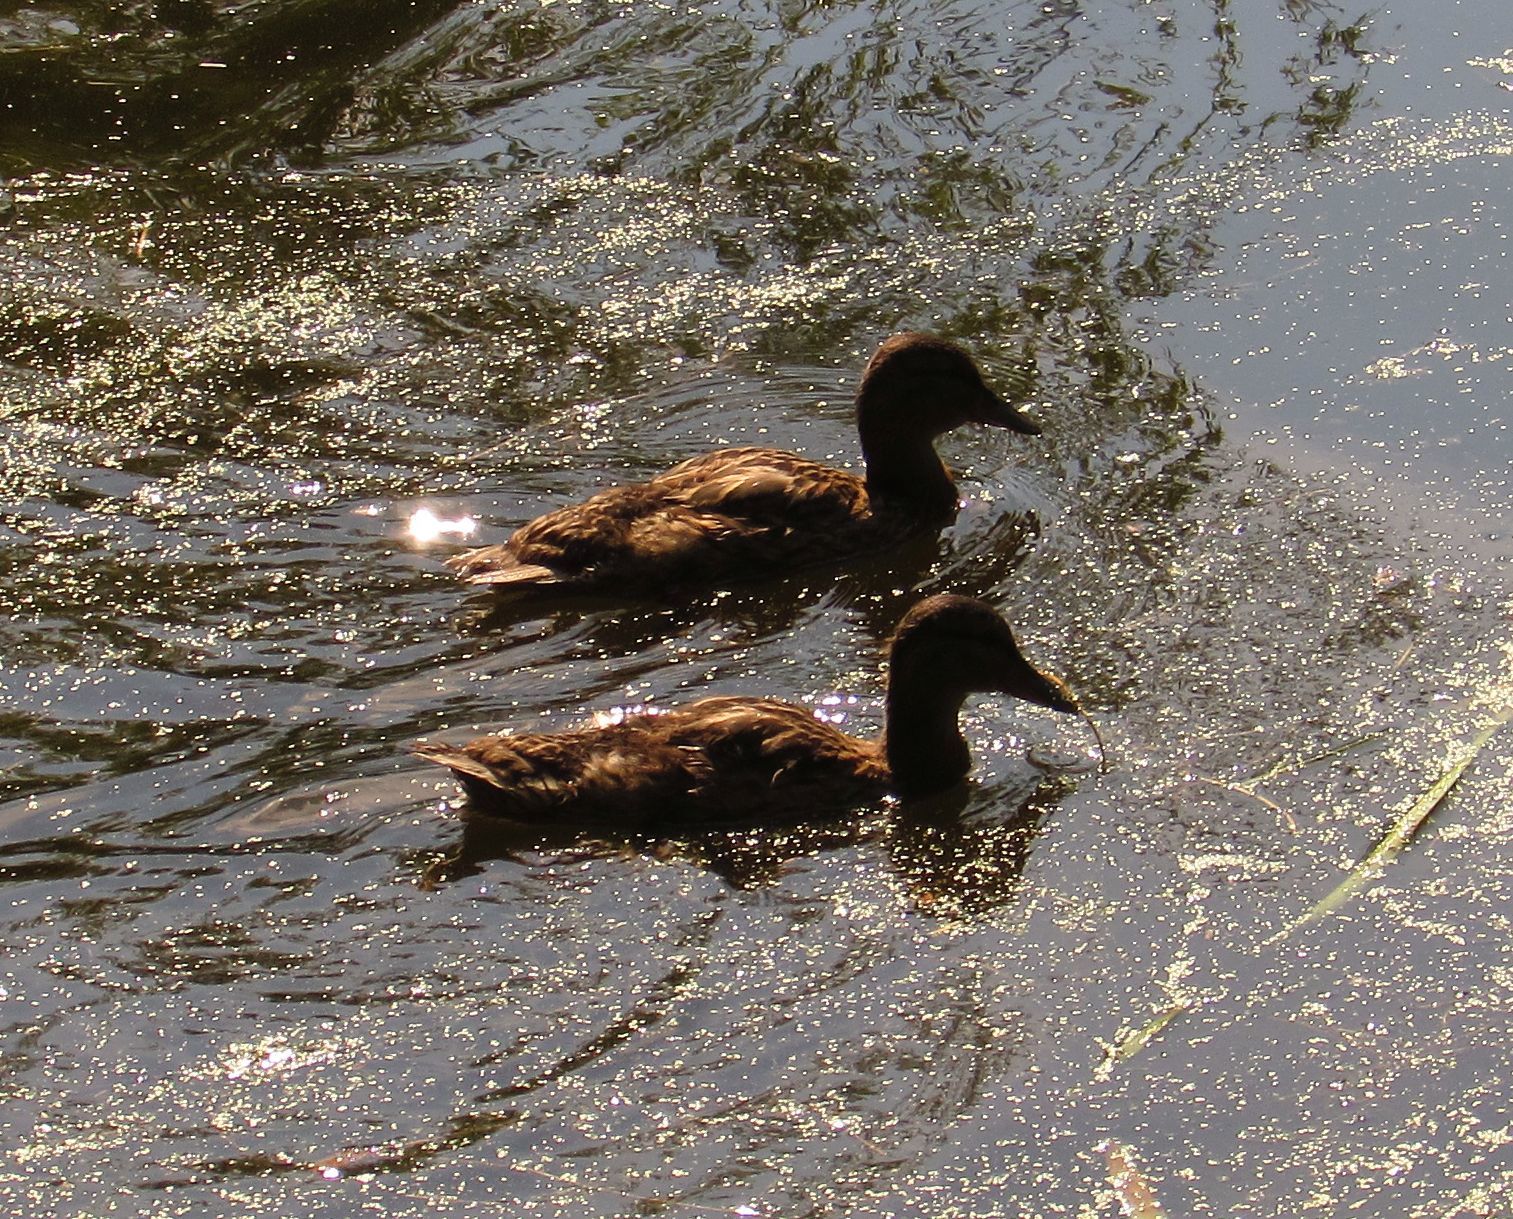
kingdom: Animalia
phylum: Chordata
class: Aves
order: Anseriformes
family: Anatidae
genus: Anas
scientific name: Anas platyrhynchos
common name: Mallard
